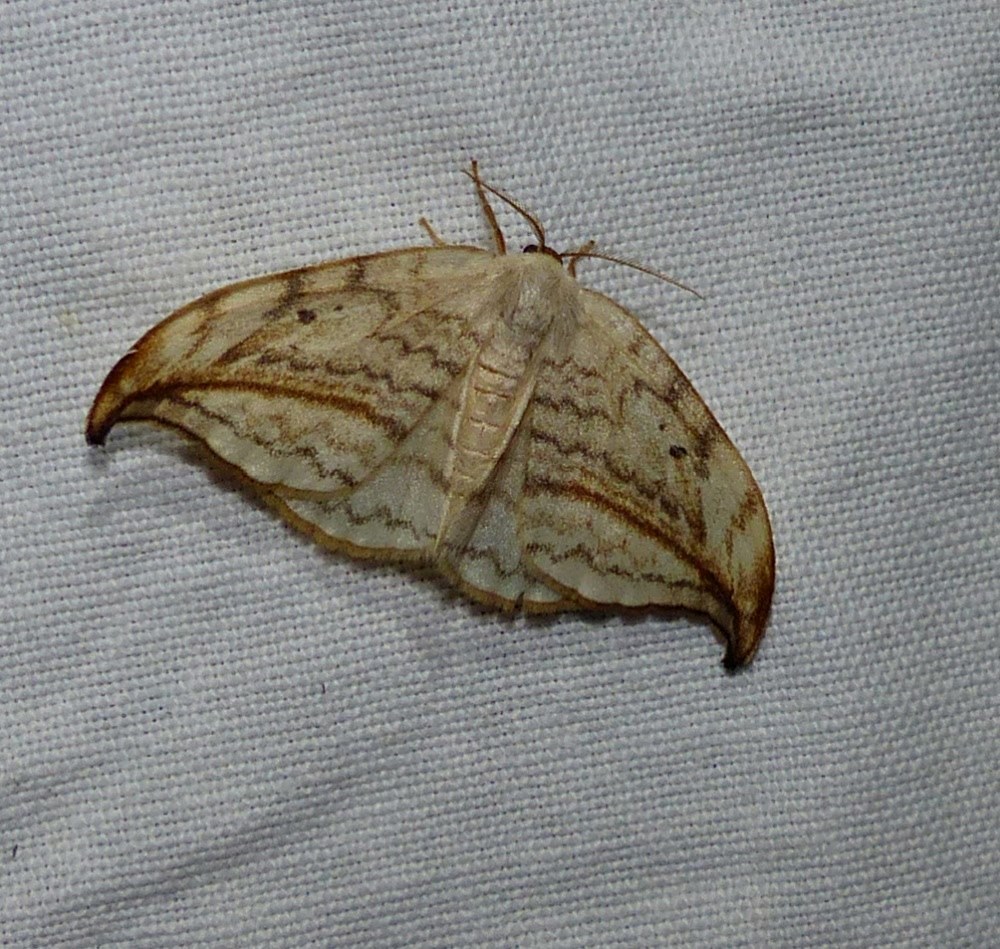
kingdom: Animalia
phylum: Arthropoda
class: Insecta
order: Lepidoptera
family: Drepanidae
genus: Drepana
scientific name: Drepana arcuata
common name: Arched hooktip moth
